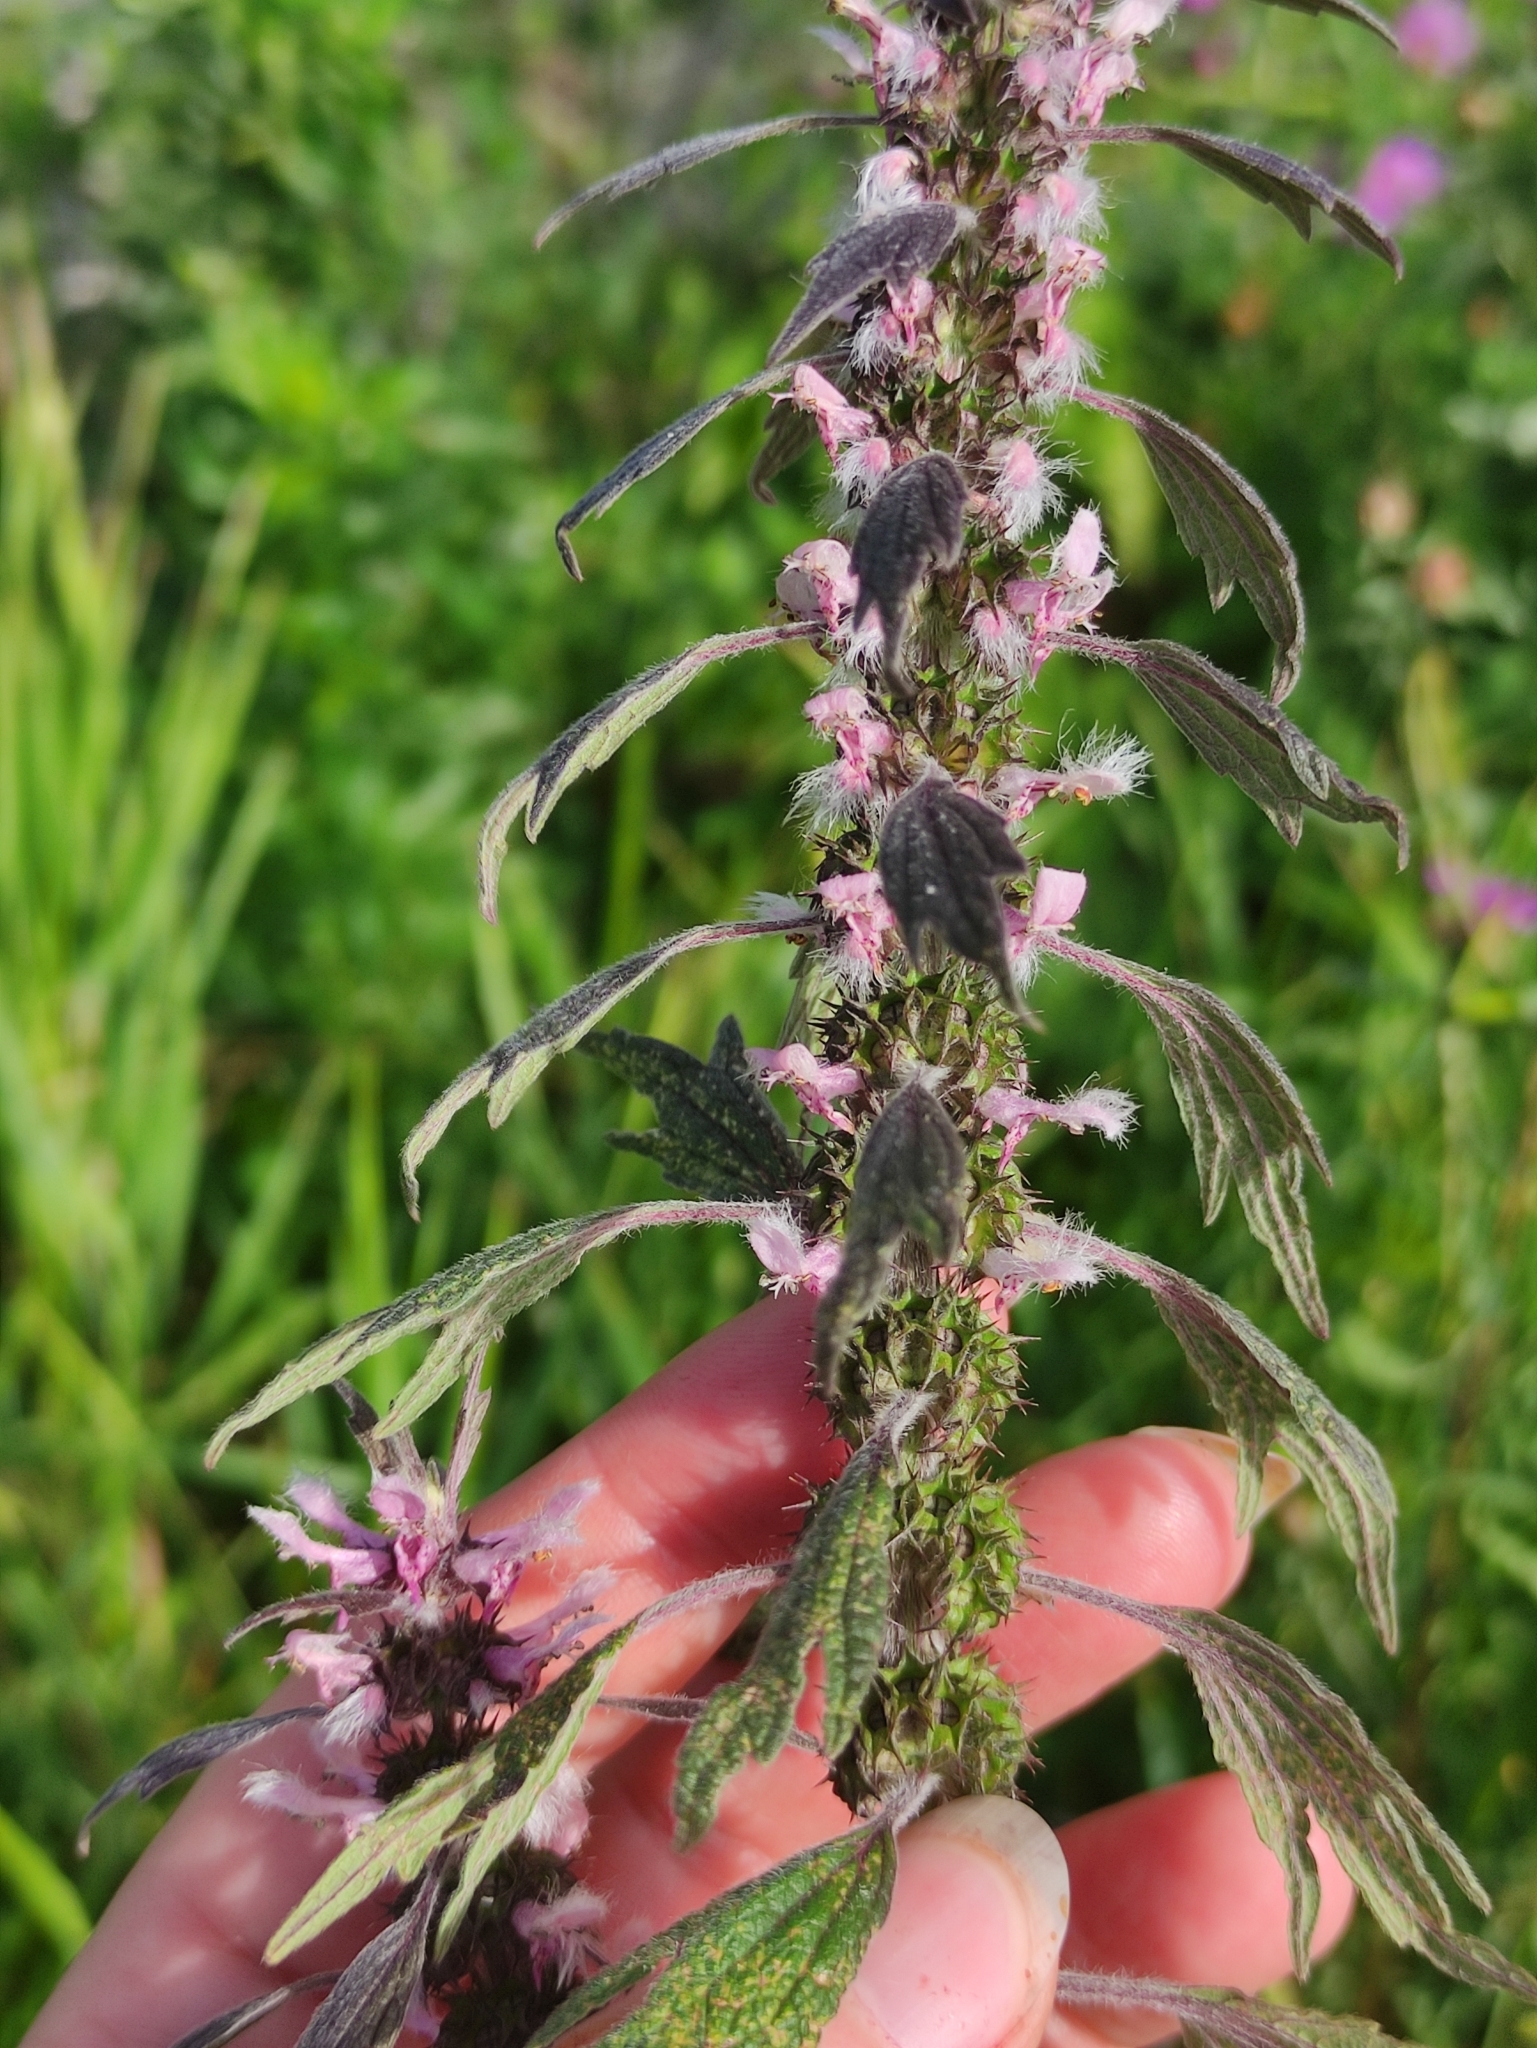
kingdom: Plantae
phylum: Tracheophyta
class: Magnoliopsida
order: Lamiales
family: Lamiaceae
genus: Leonurus
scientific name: Leonurus quinquelobatus
